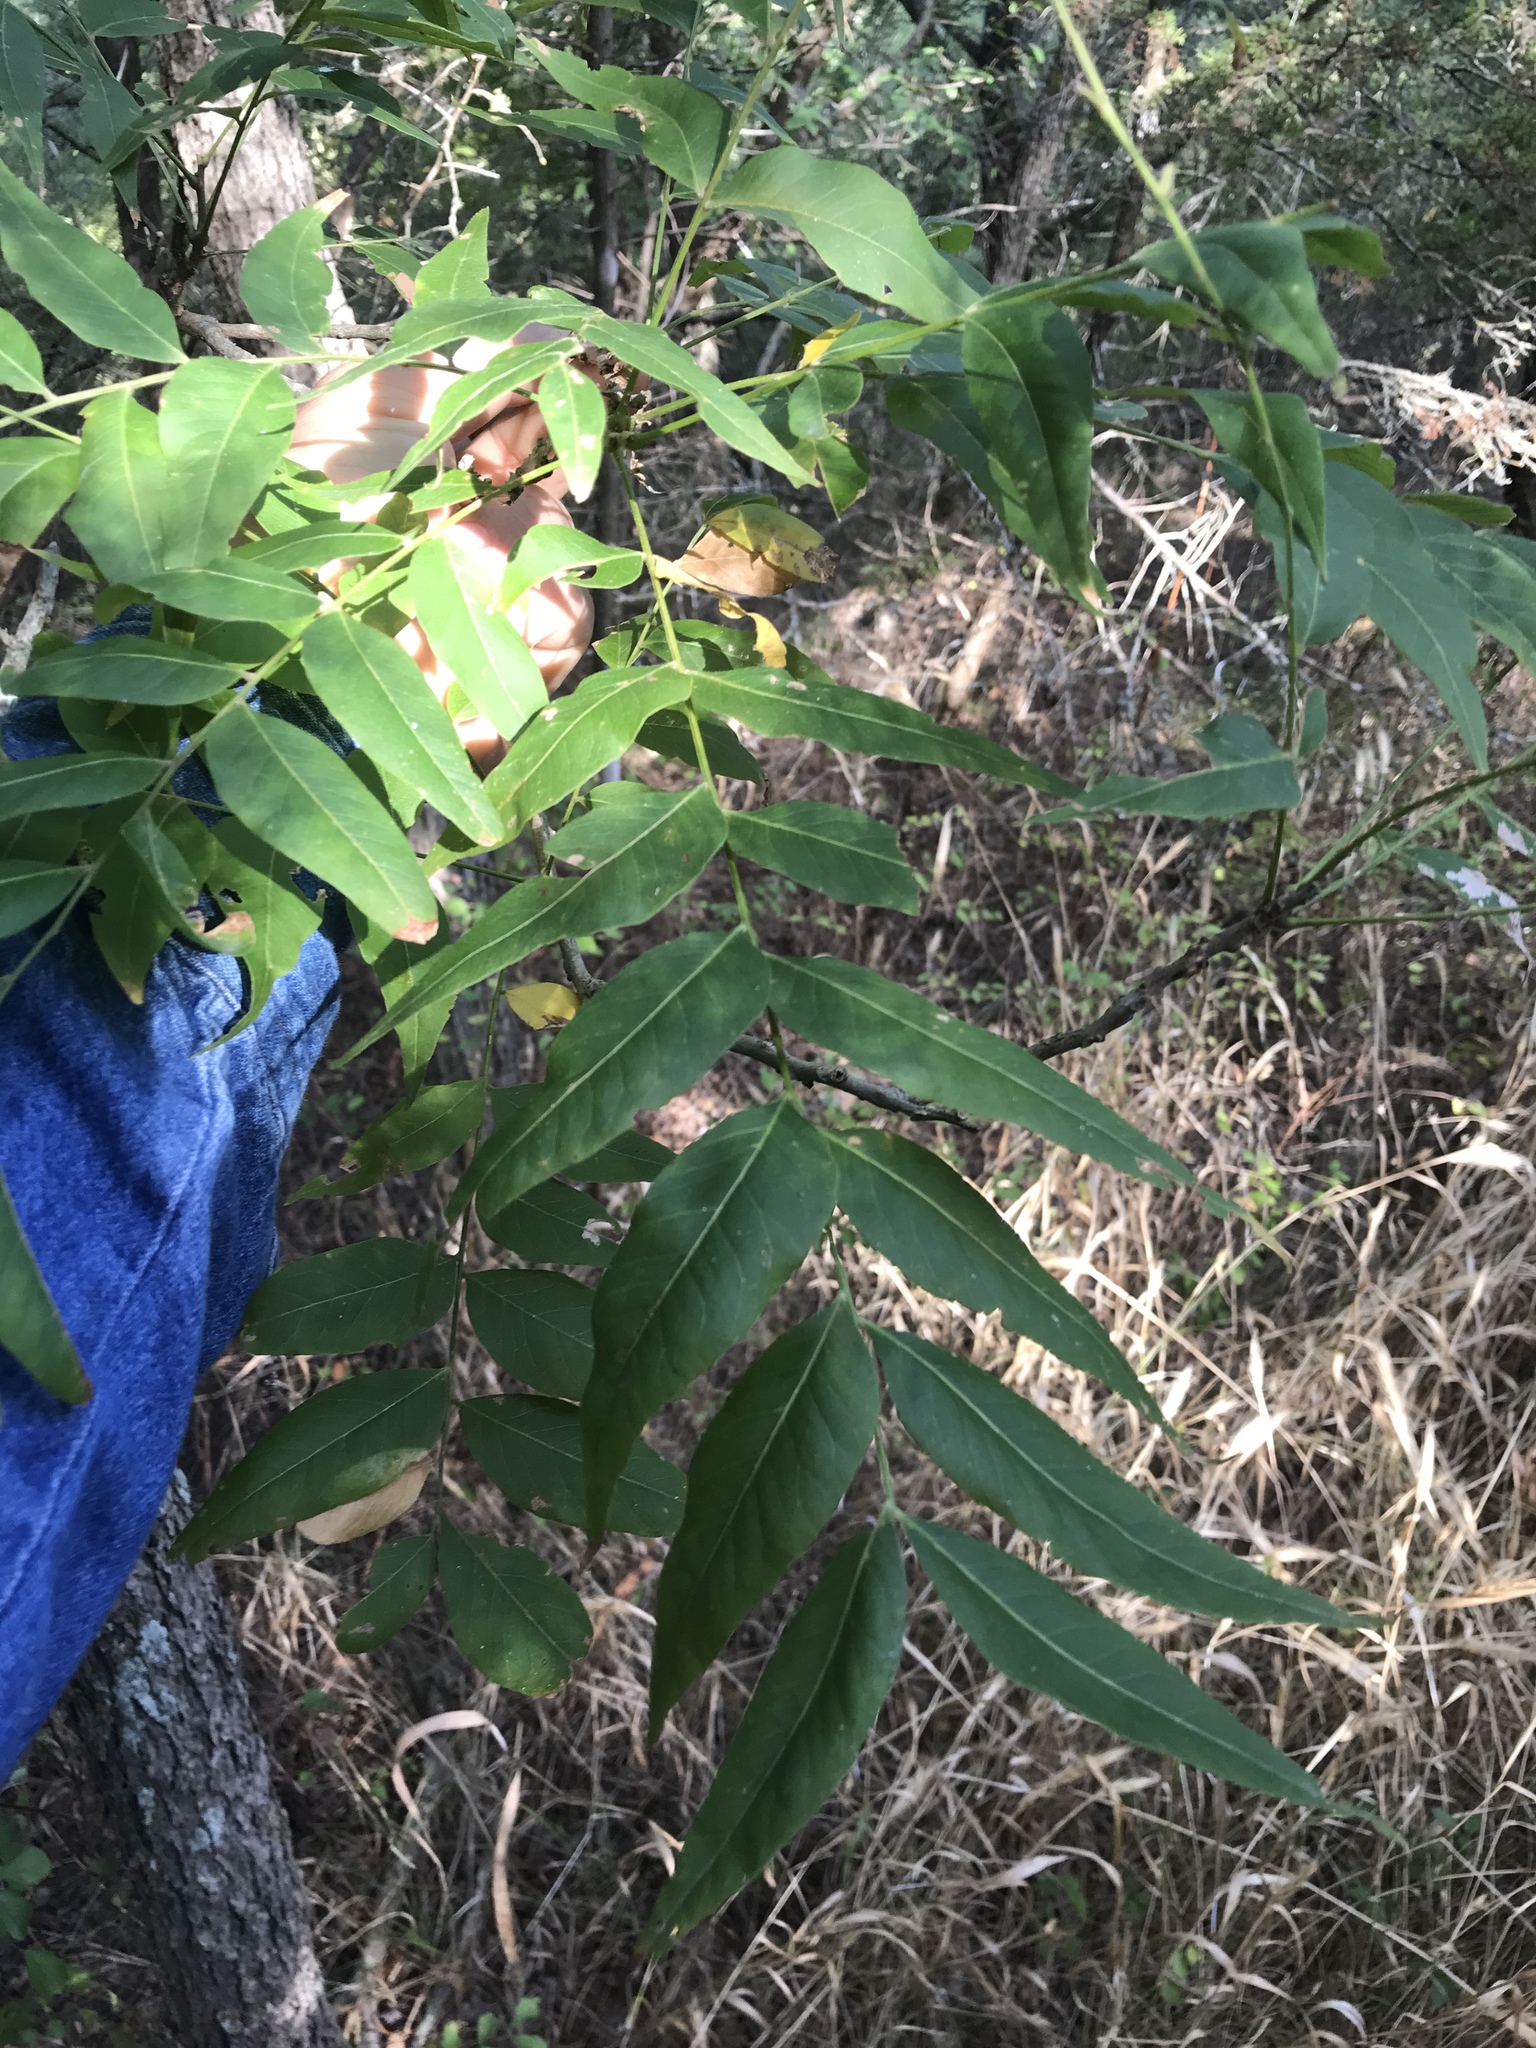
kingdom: Plantae
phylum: Tracheophyta
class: Magnoliopsida
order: Sapindales
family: Sapindaceae
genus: Sapindus
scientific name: Sapindus drummondii
